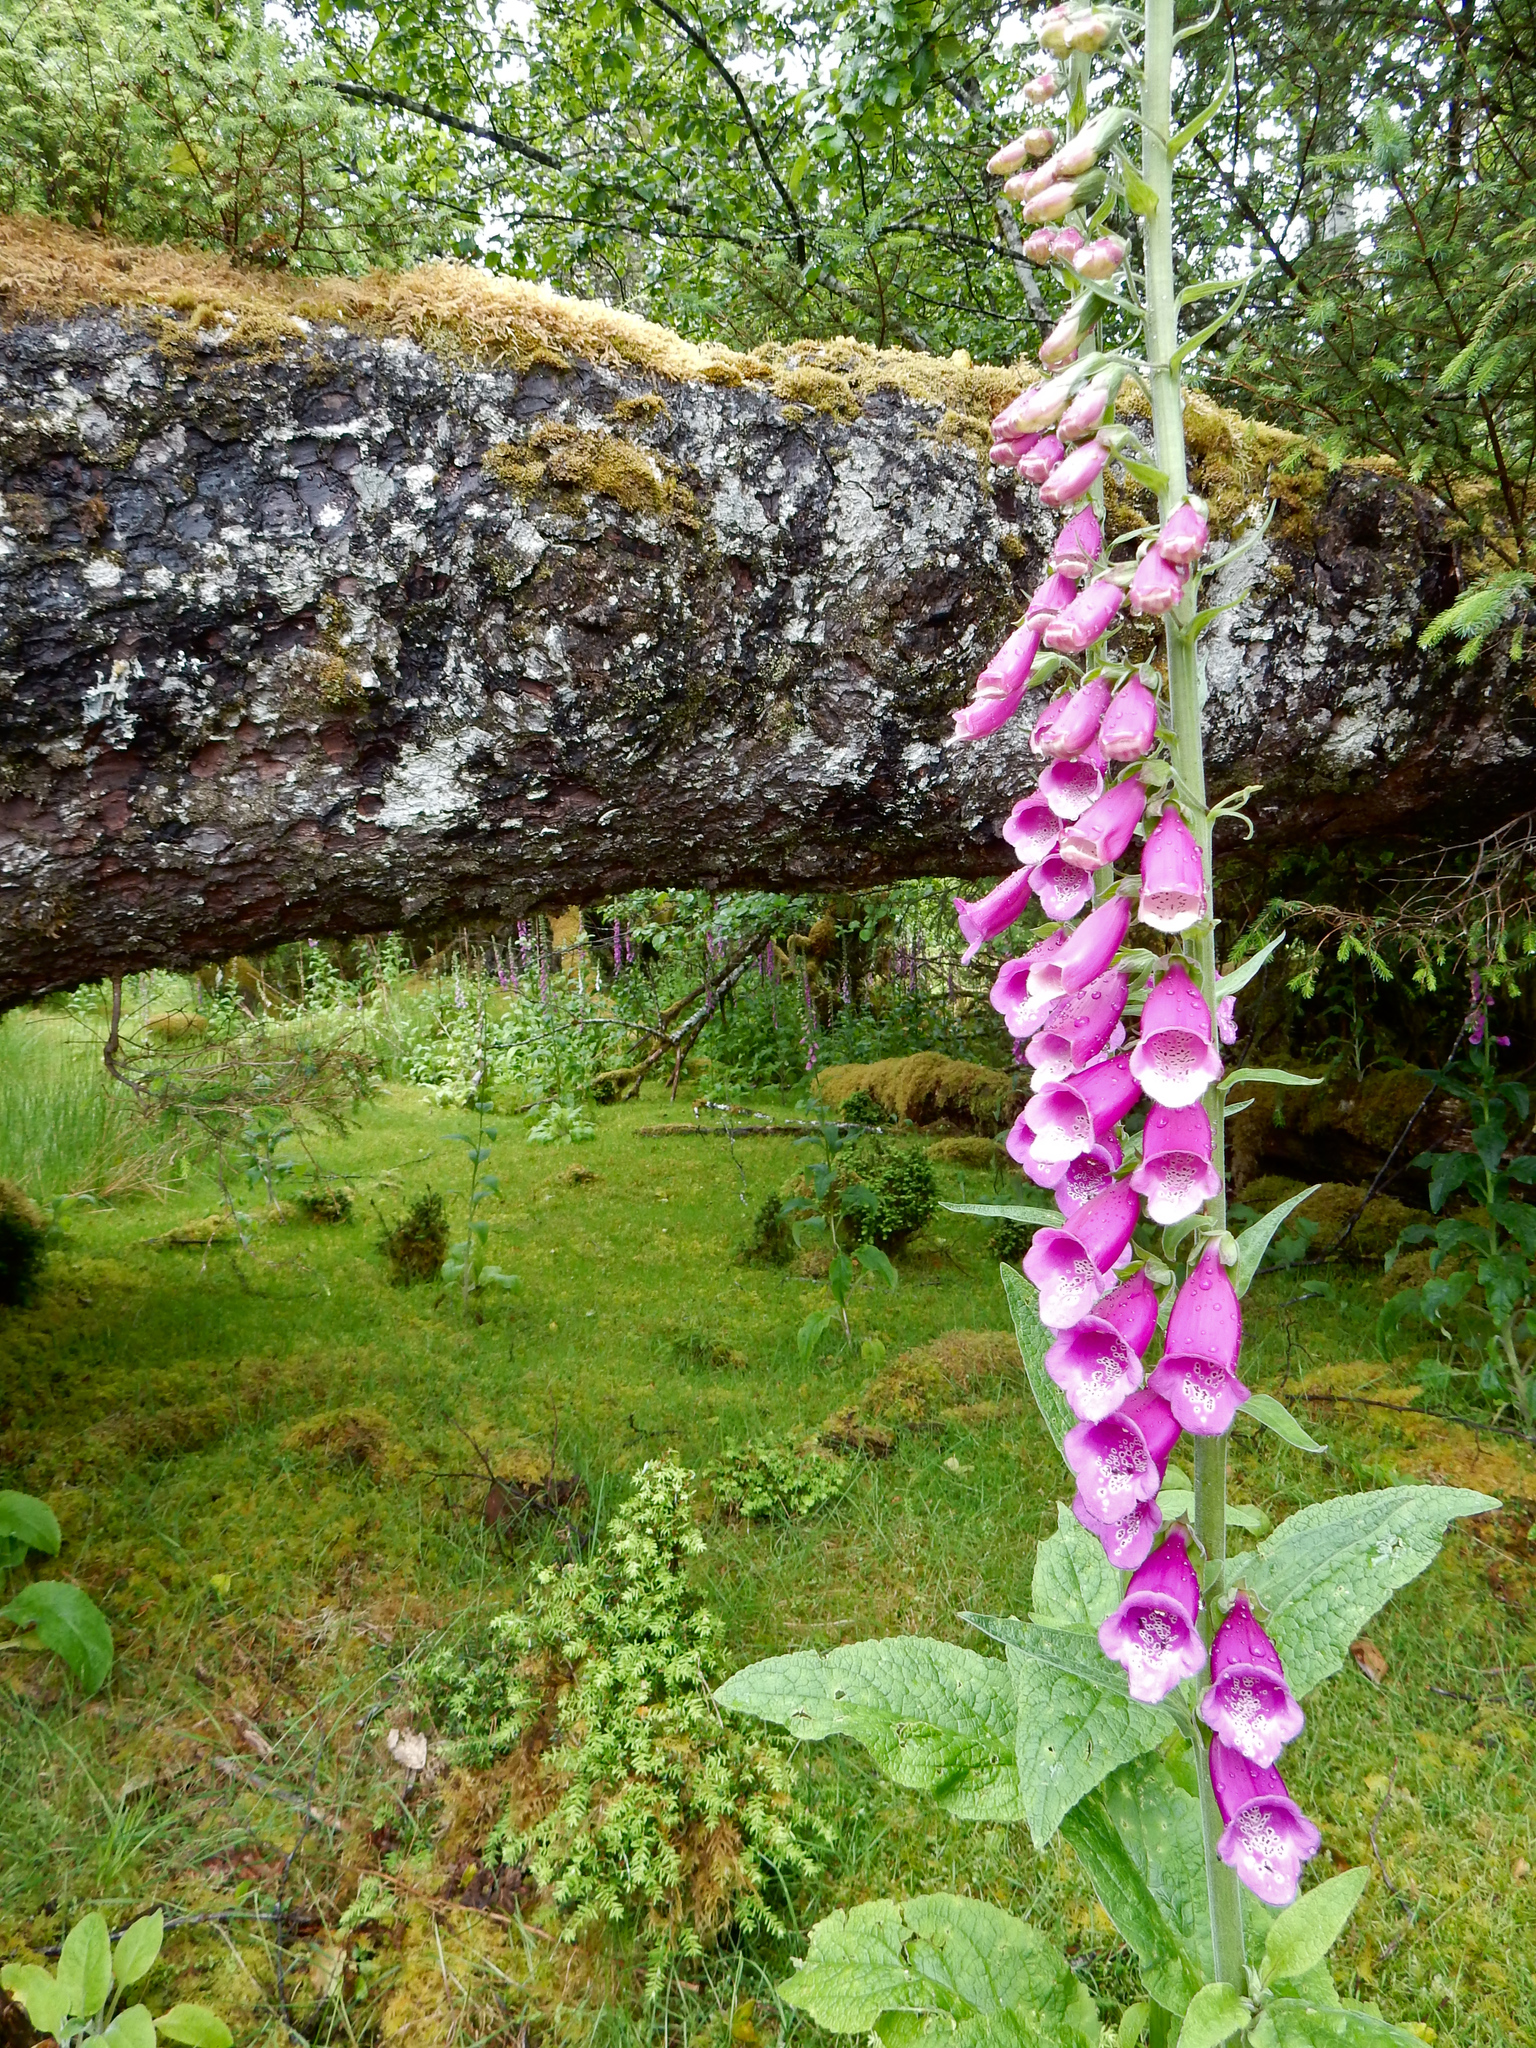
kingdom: Plantae
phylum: Tracheophyta
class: Magnoliopsida
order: Lamiales
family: Plantaginaceae
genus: Digitalis
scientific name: Digitalis purpurea
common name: Foxglove
